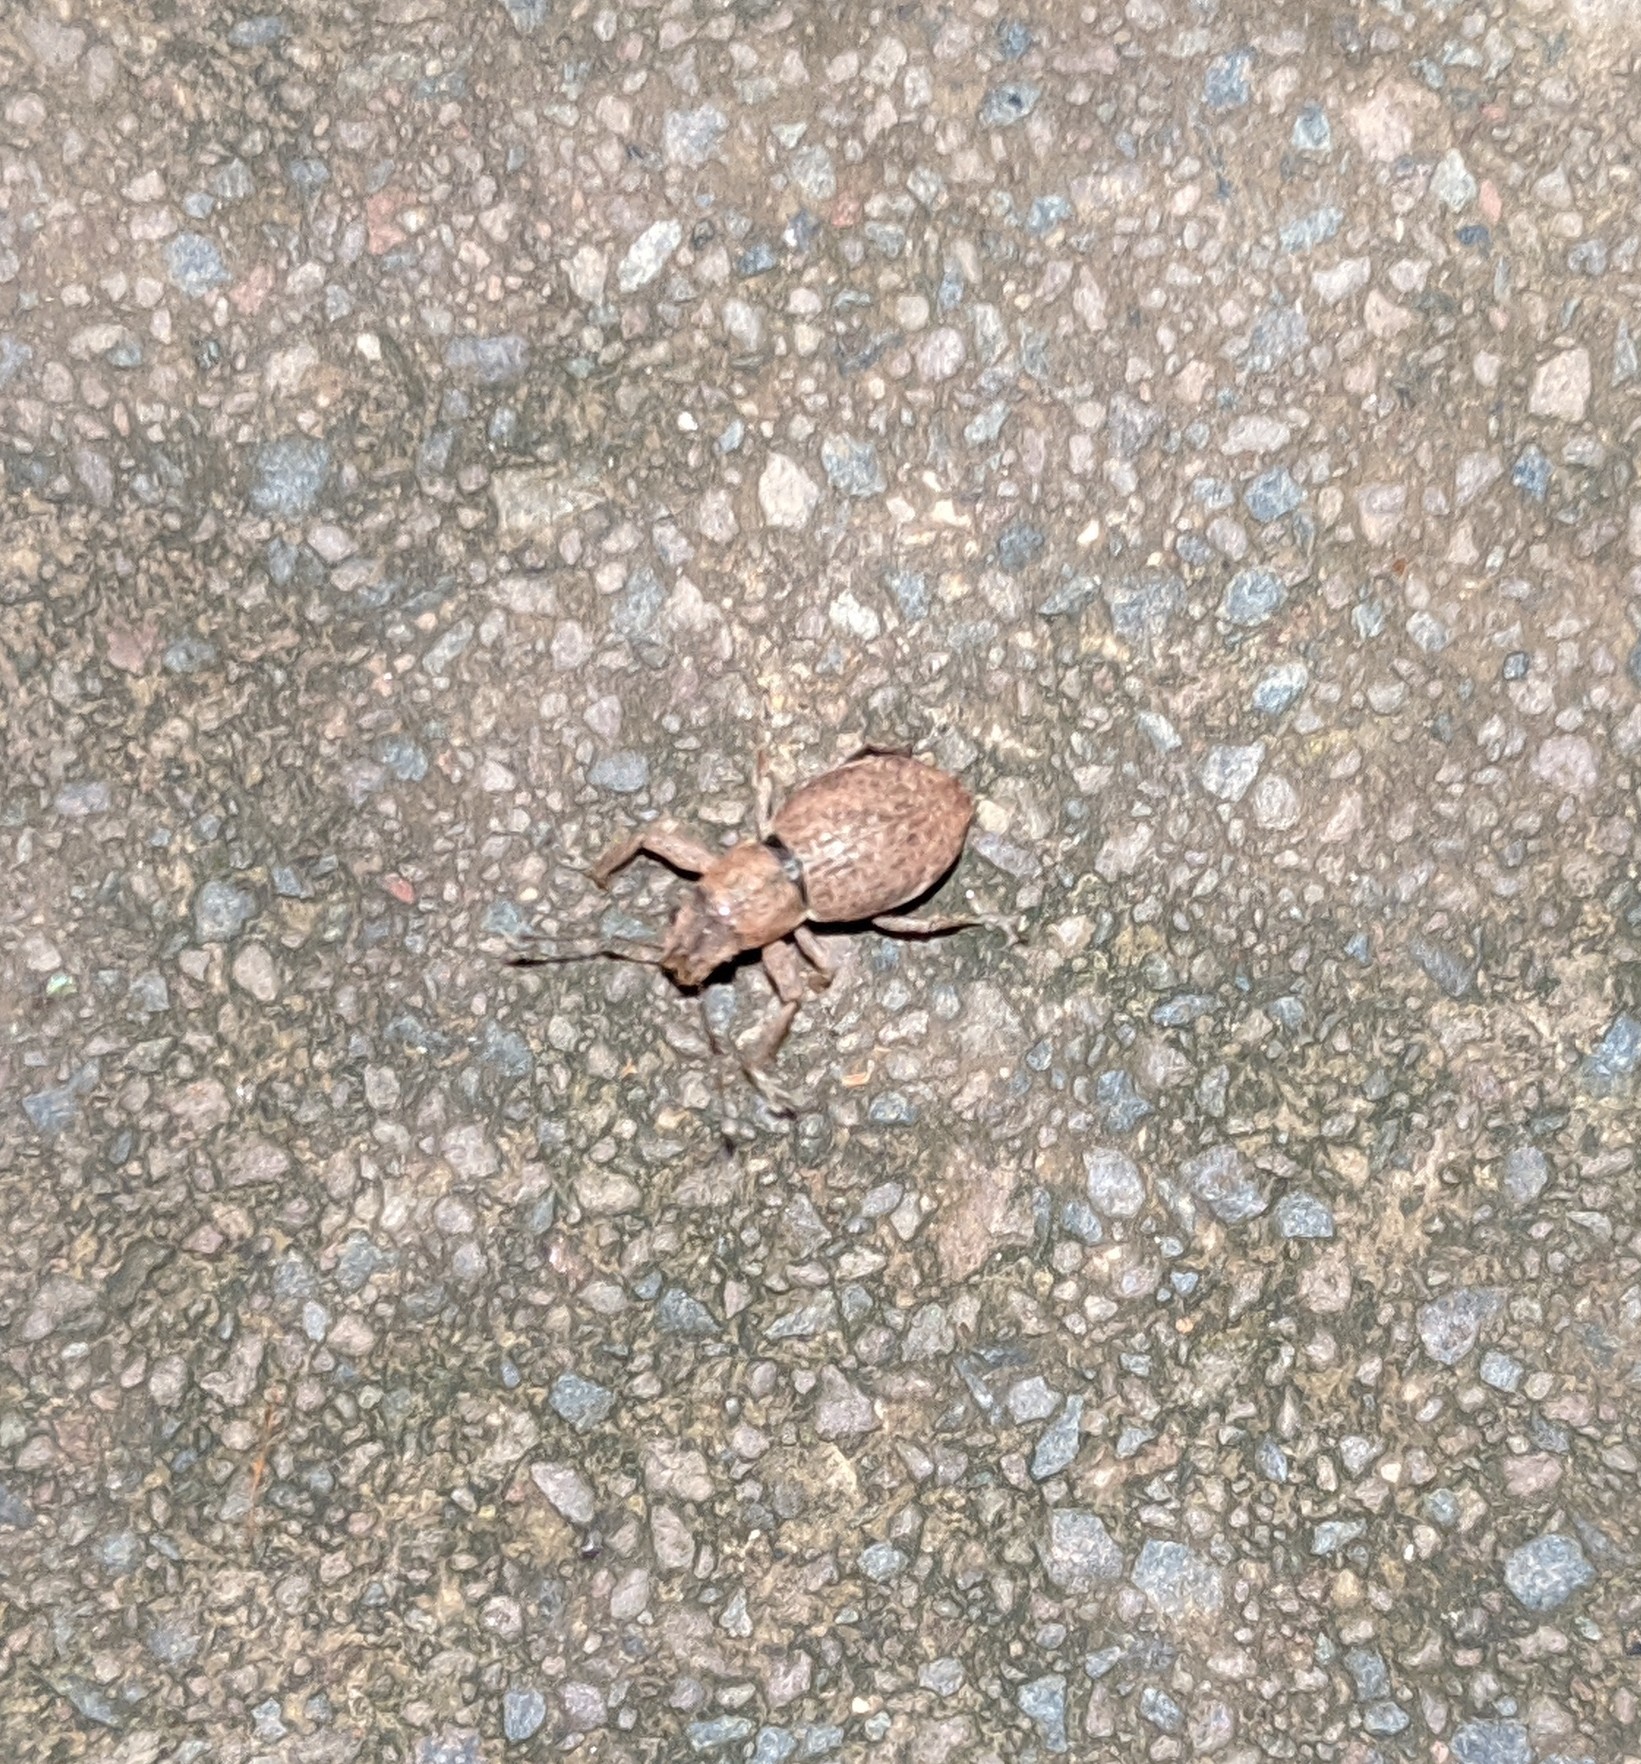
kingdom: Animalia
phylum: Arthropoda
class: Insecta
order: Coleoptera
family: Curculionidae
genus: Naupactus
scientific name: Naupactus cervinus
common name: Fuller rose beetle
